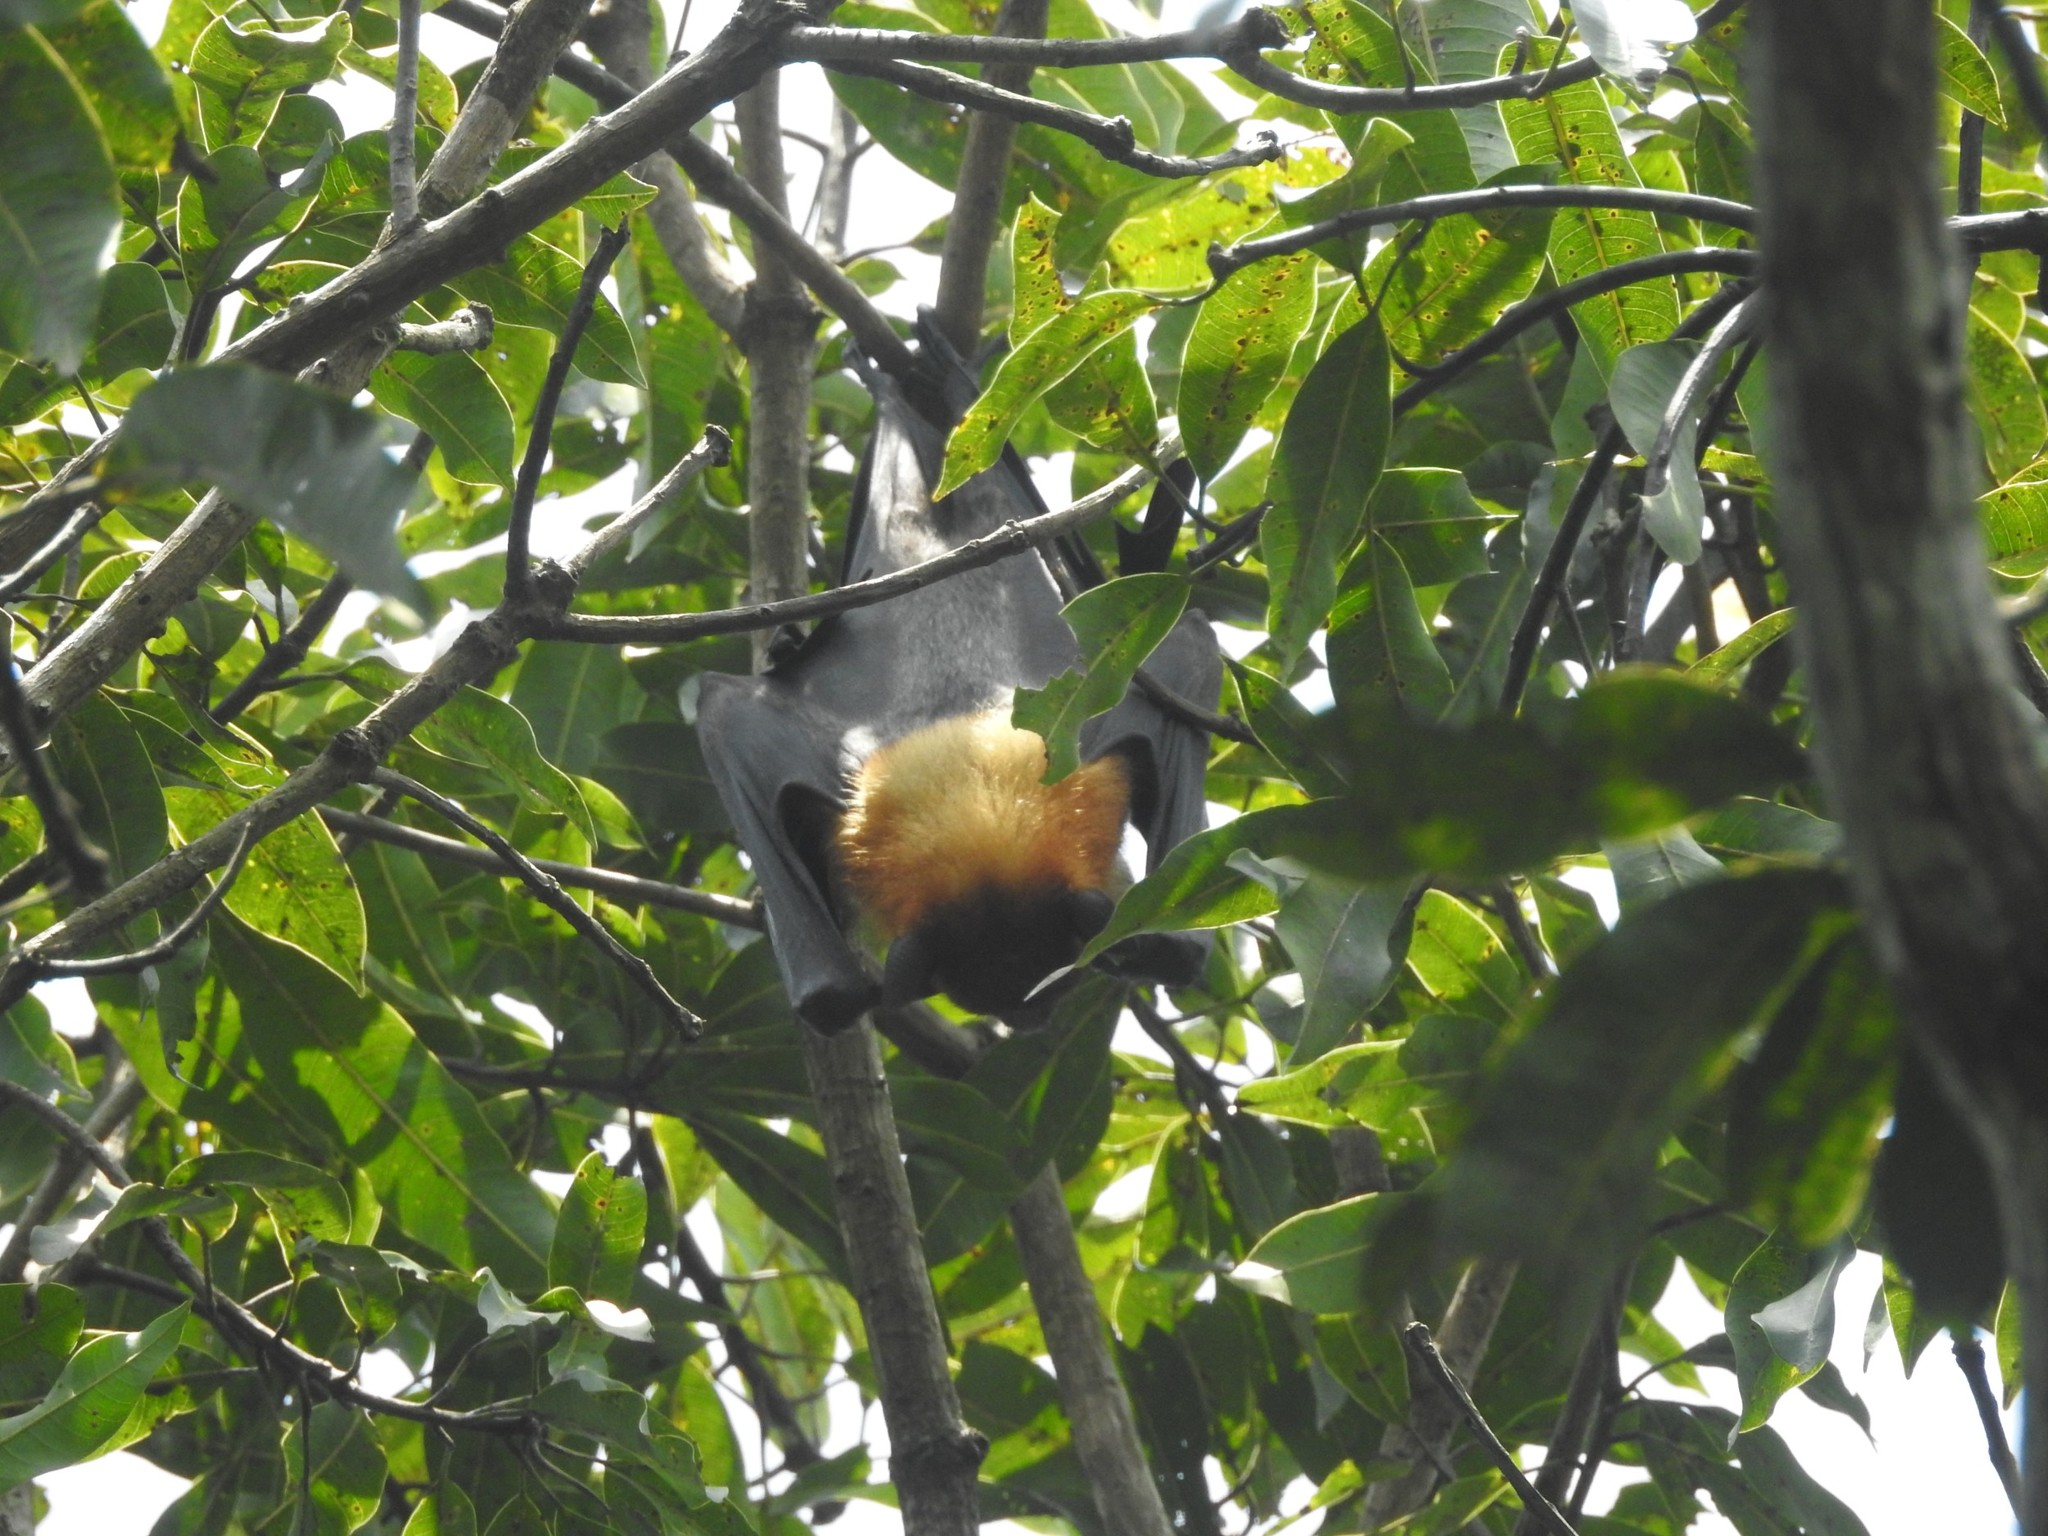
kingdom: Animalia
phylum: Chordata
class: Mammalia
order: Chiroptera
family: Pteropodidae
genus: Pteropus
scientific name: Pteropus vampyrus
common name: Large flying fox
